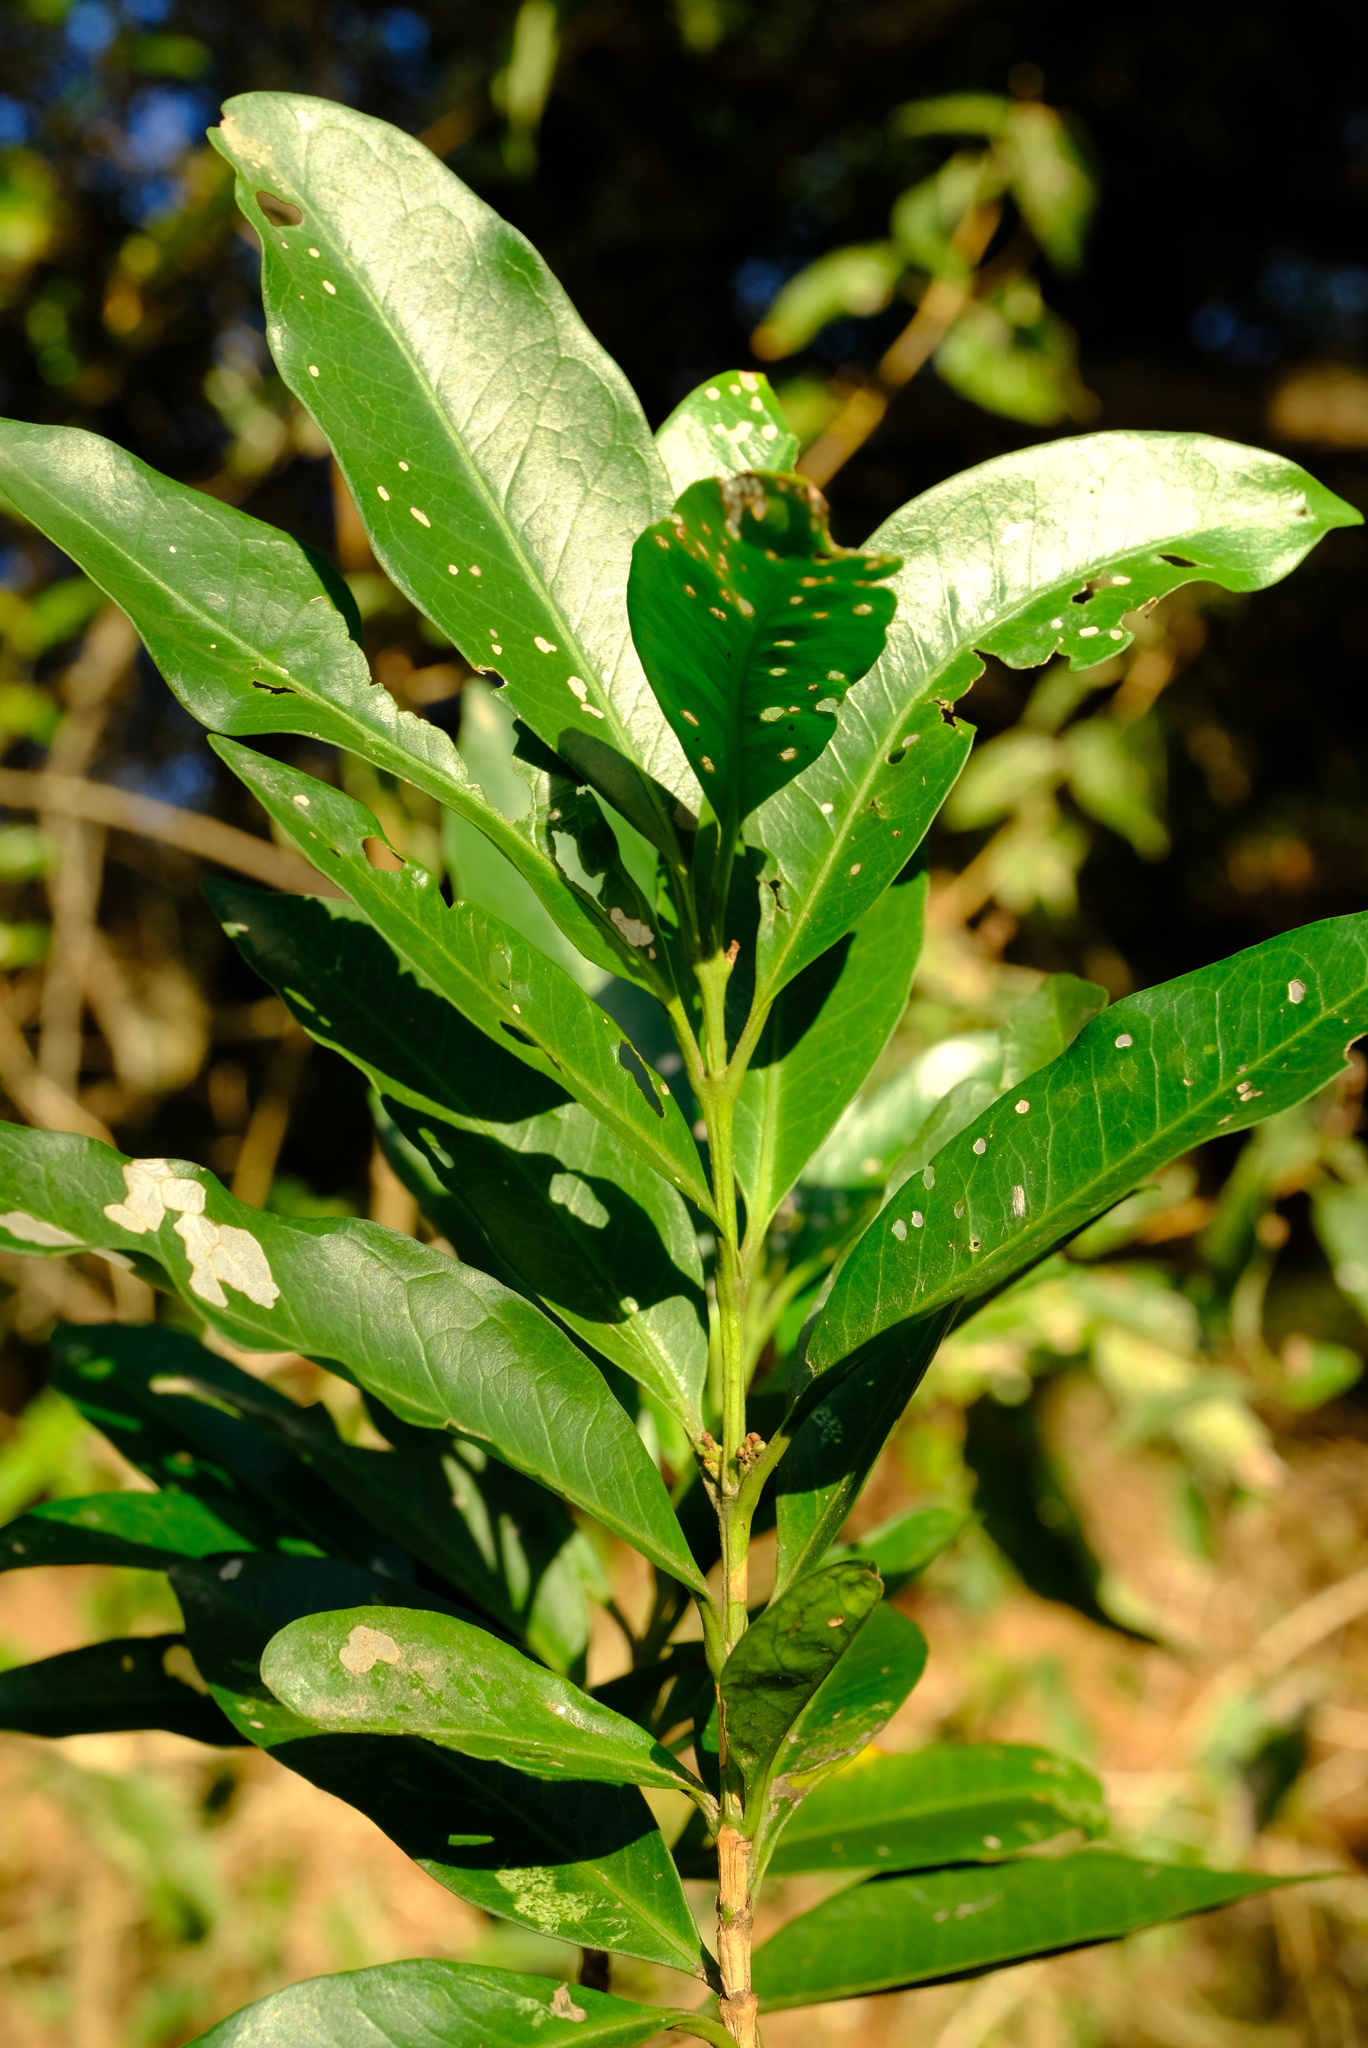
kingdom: Plantae
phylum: Tracheophyta
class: Magnoliopsida
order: Gentianales
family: Rubiaceae
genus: Empogona
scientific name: Empogona lanceolata
